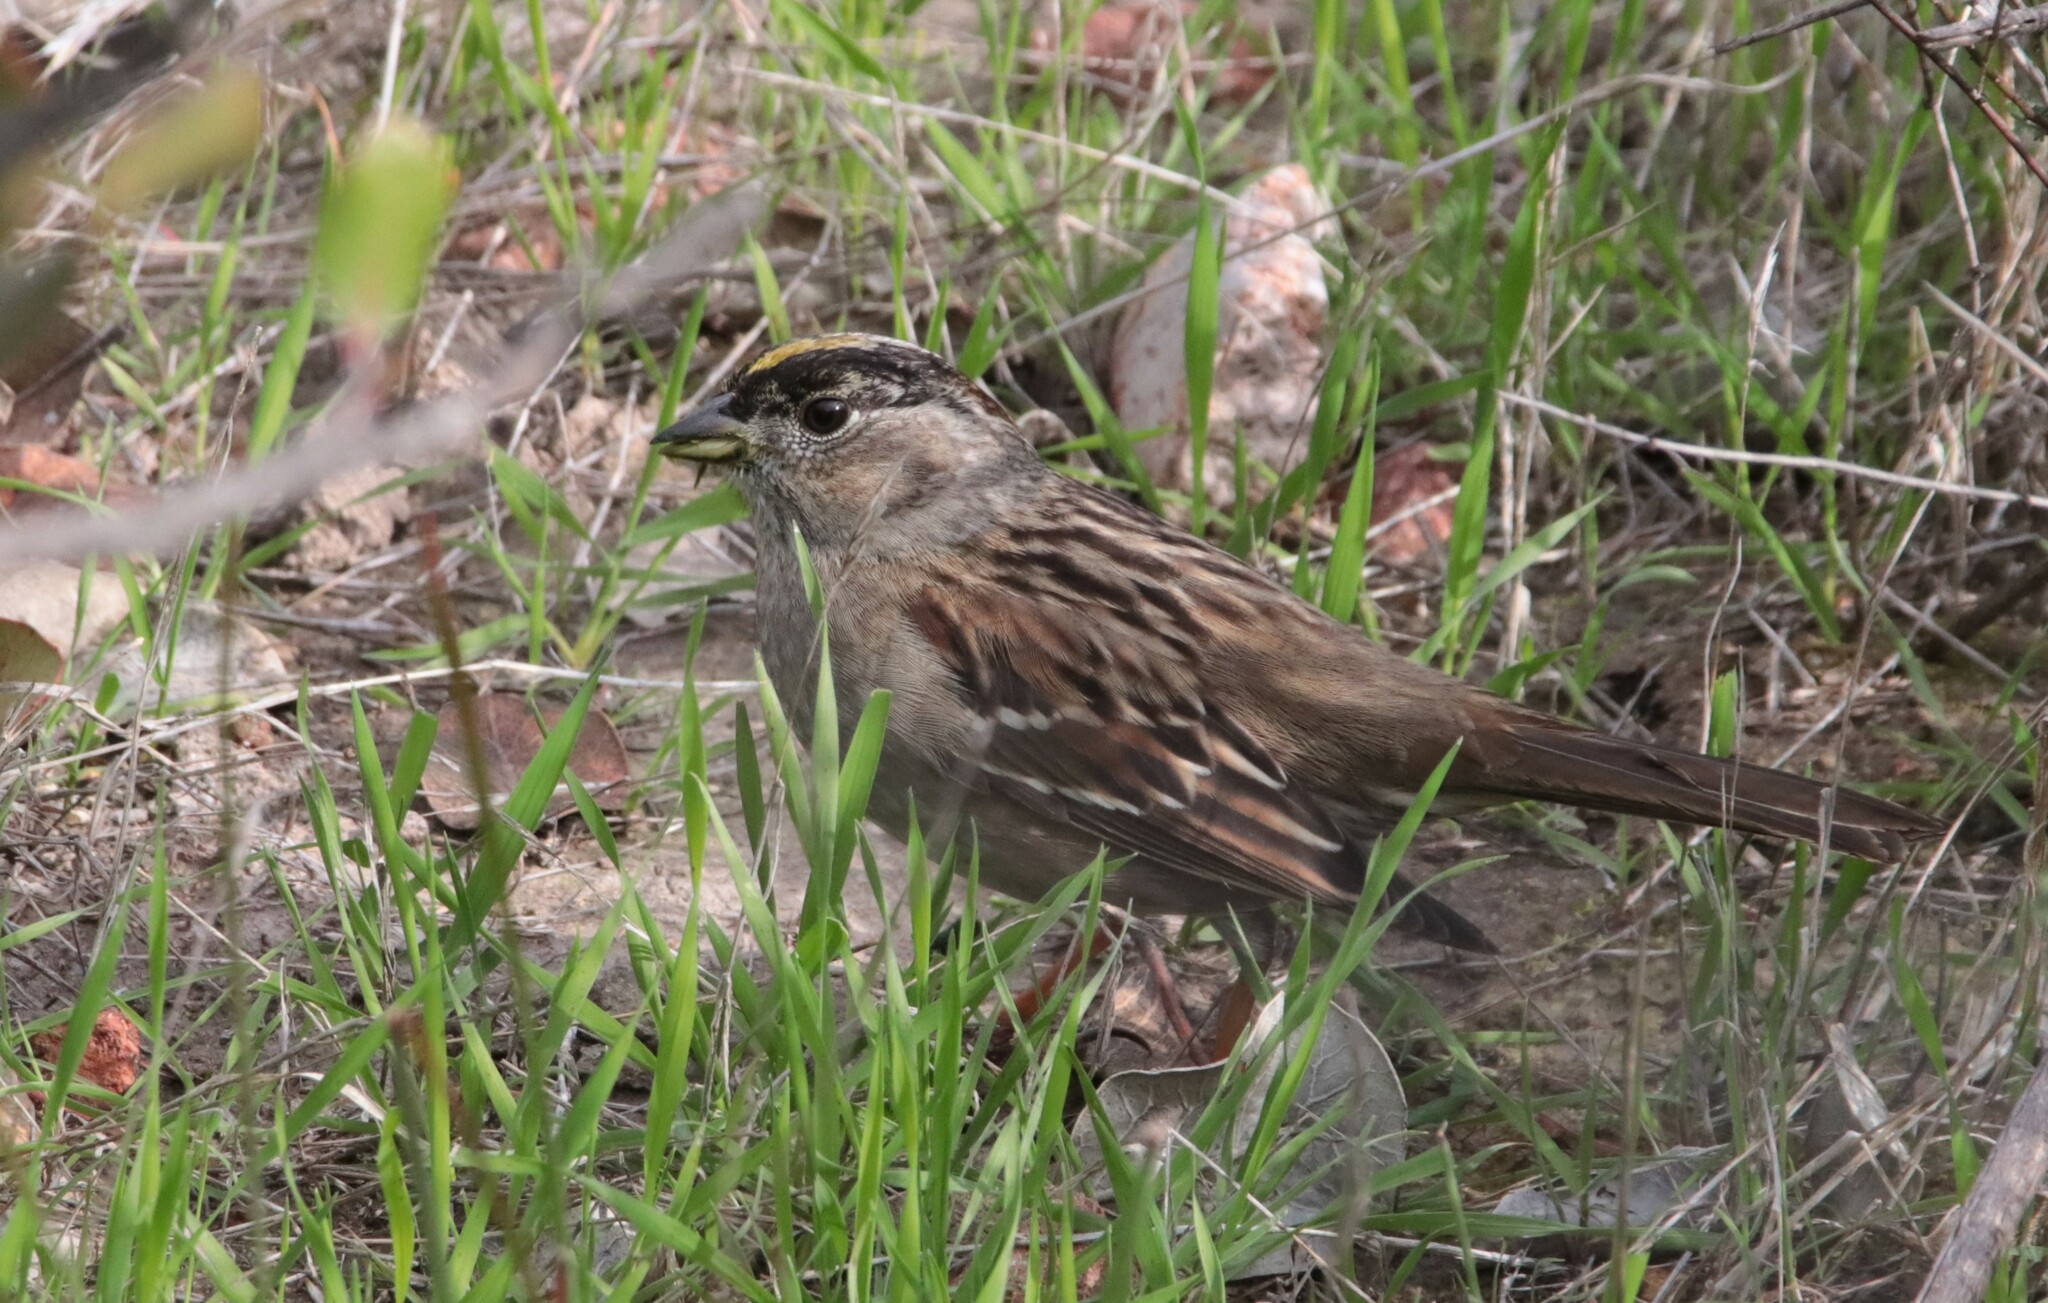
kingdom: Animalia
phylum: Chordata
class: Aves
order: Passeriformes
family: Passerellidae
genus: Zonotrichia
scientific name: Zonotrichia atricapilla
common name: Golden-crowned sparrow
